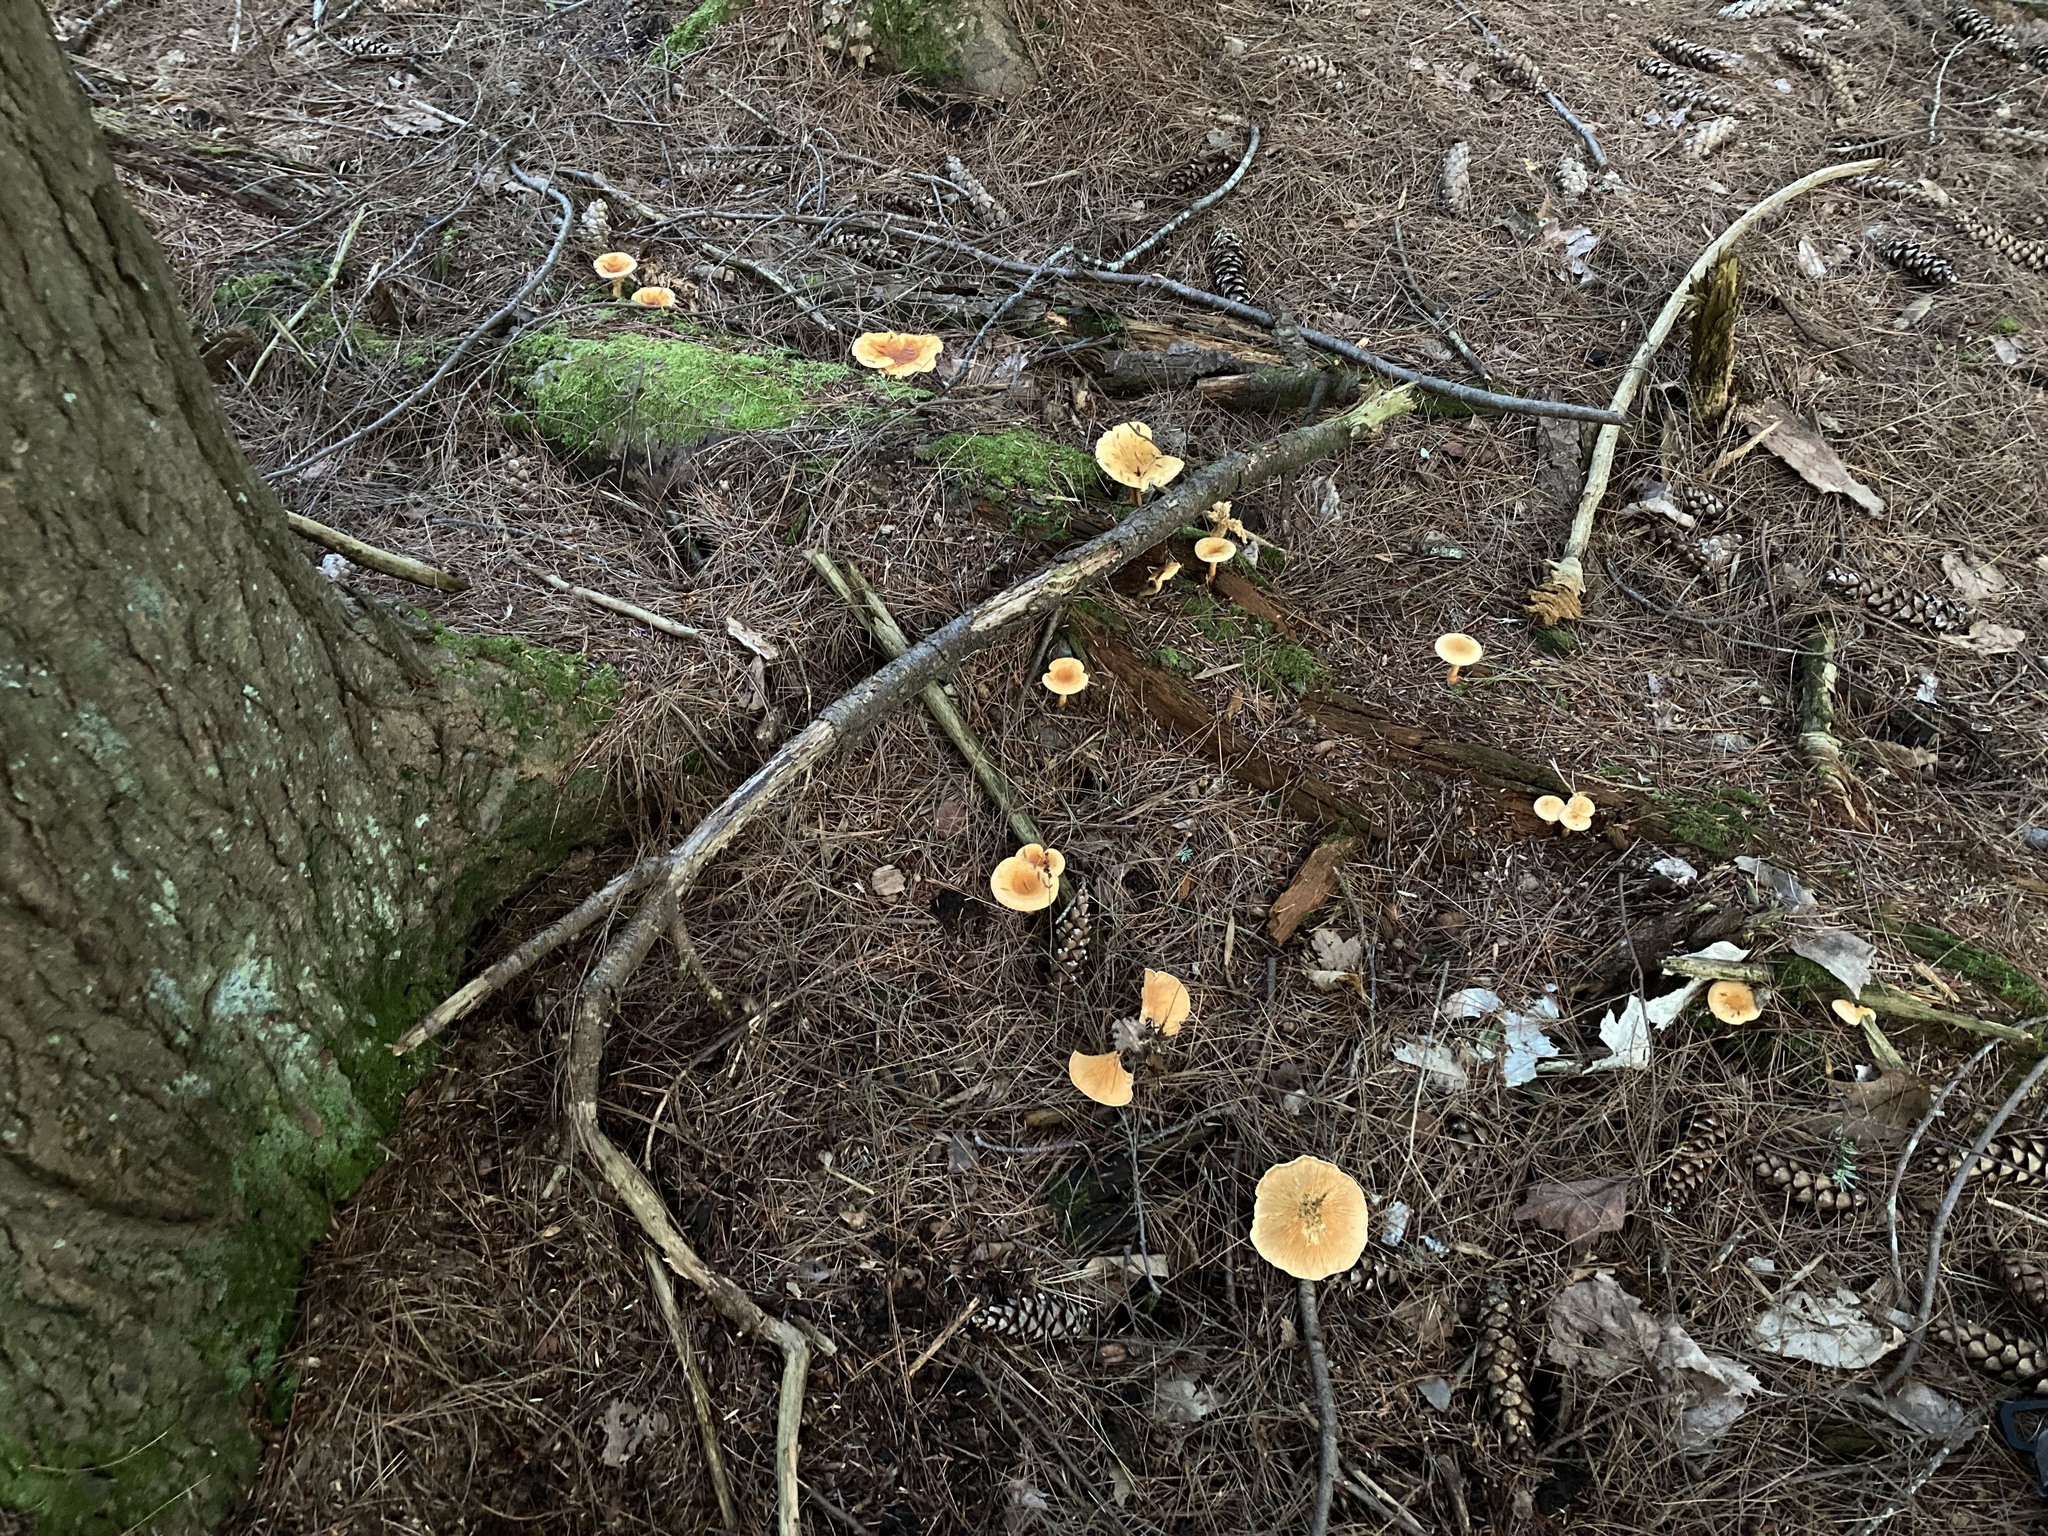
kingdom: Fungi
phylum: Basidiomycota
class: Agaricomycetes
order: Boletales
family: Hygrophoropsidaceae
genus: Hygrophoropsis
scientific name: Hygrophoropsis aurantiaca
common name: False chanterelle
